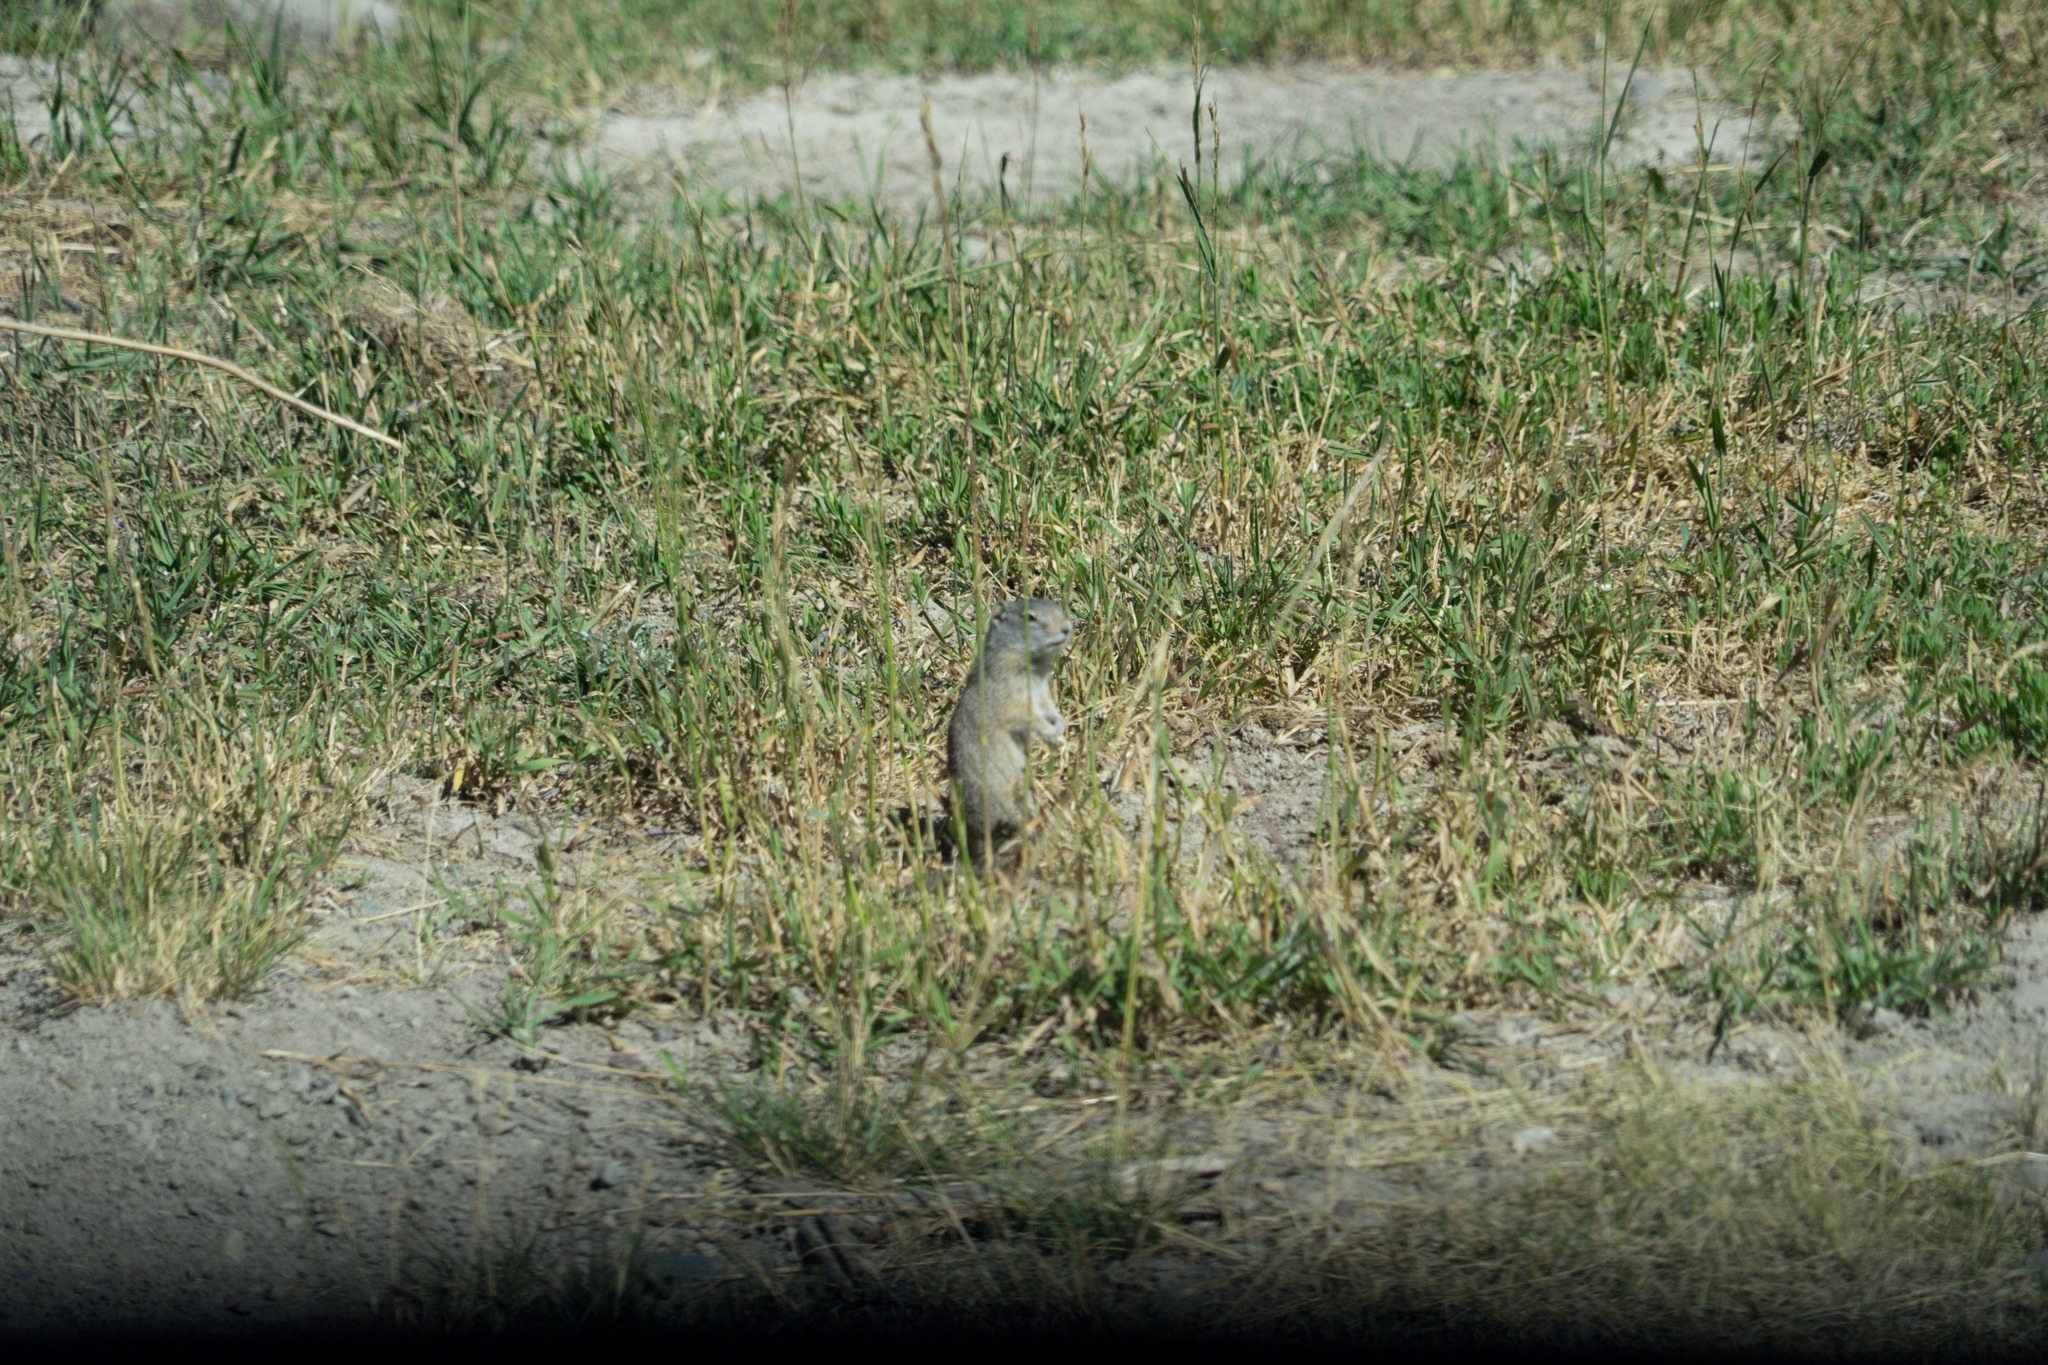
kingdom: Animalia
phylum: Chordata
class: Mammalia
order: Rodentia
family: Sciuridae
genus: Urocitellus
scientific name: Urocitellus armatus
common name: Uinta ground squirrel
